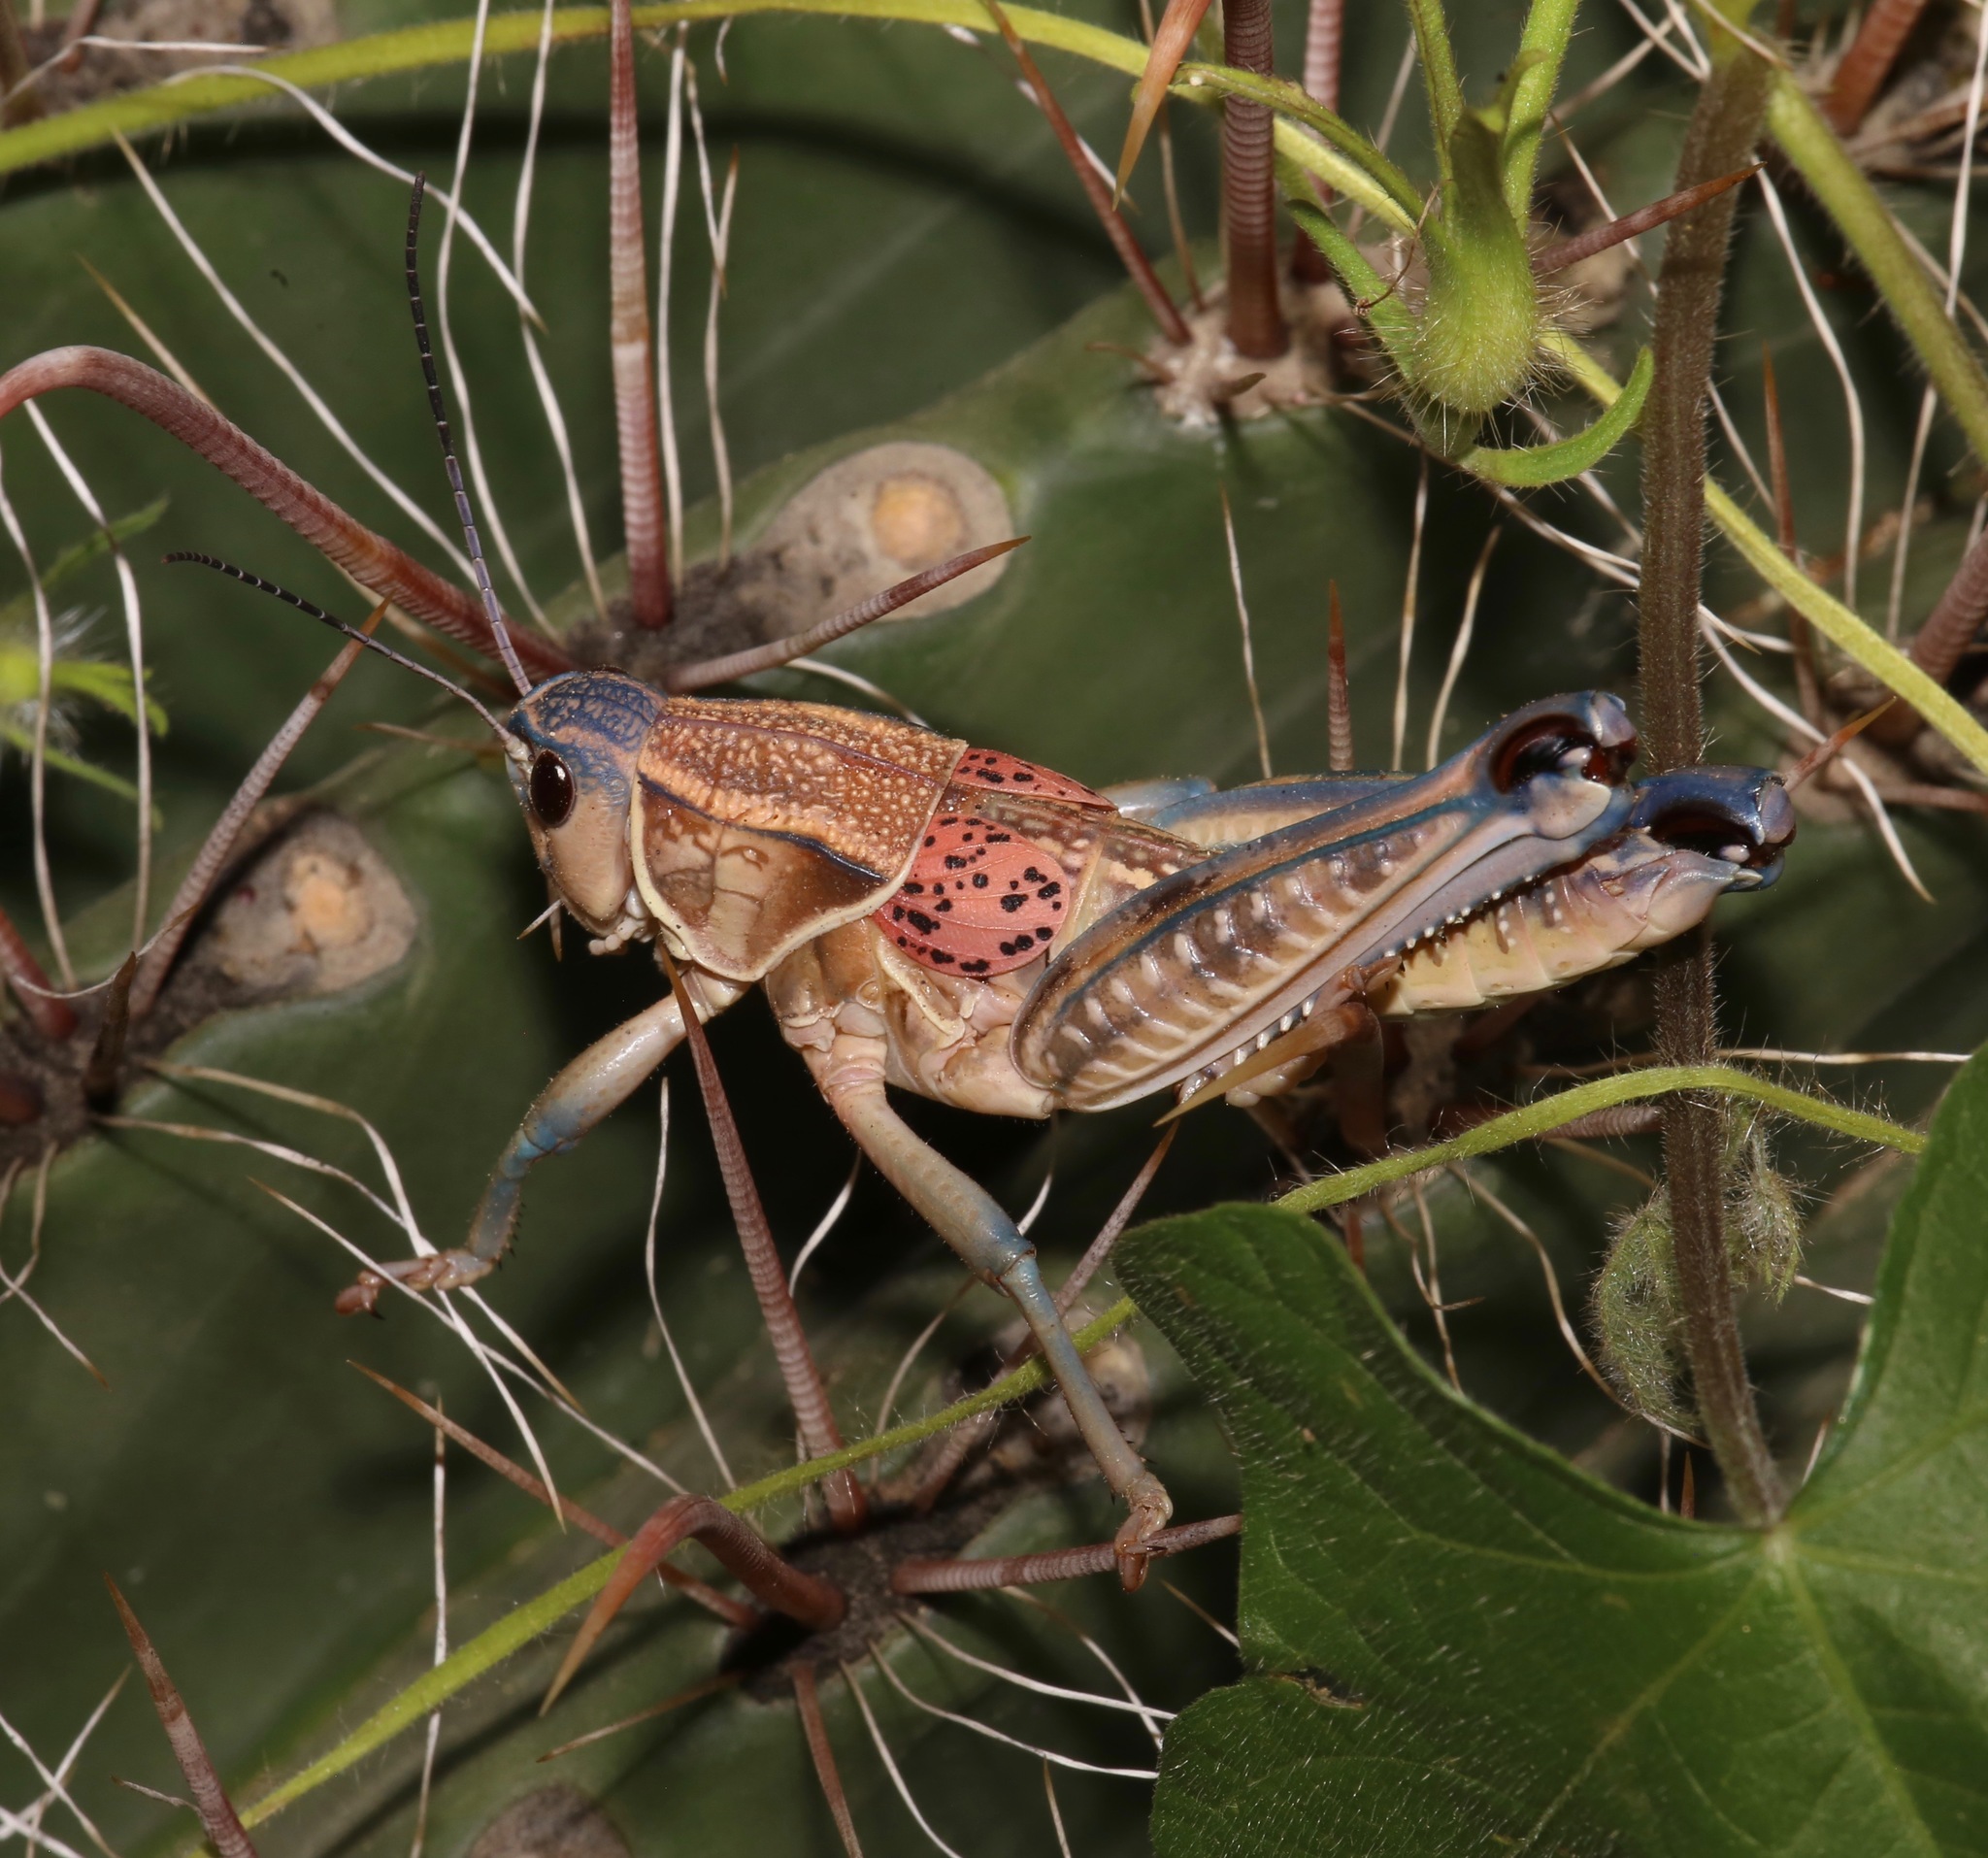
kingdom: Animalia
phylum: Arthropoda
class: Insecta
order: Orthoptera
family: Romaleidae
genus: Brachystola
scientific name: Brachystola magna
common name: Plains lubber grasshopper
